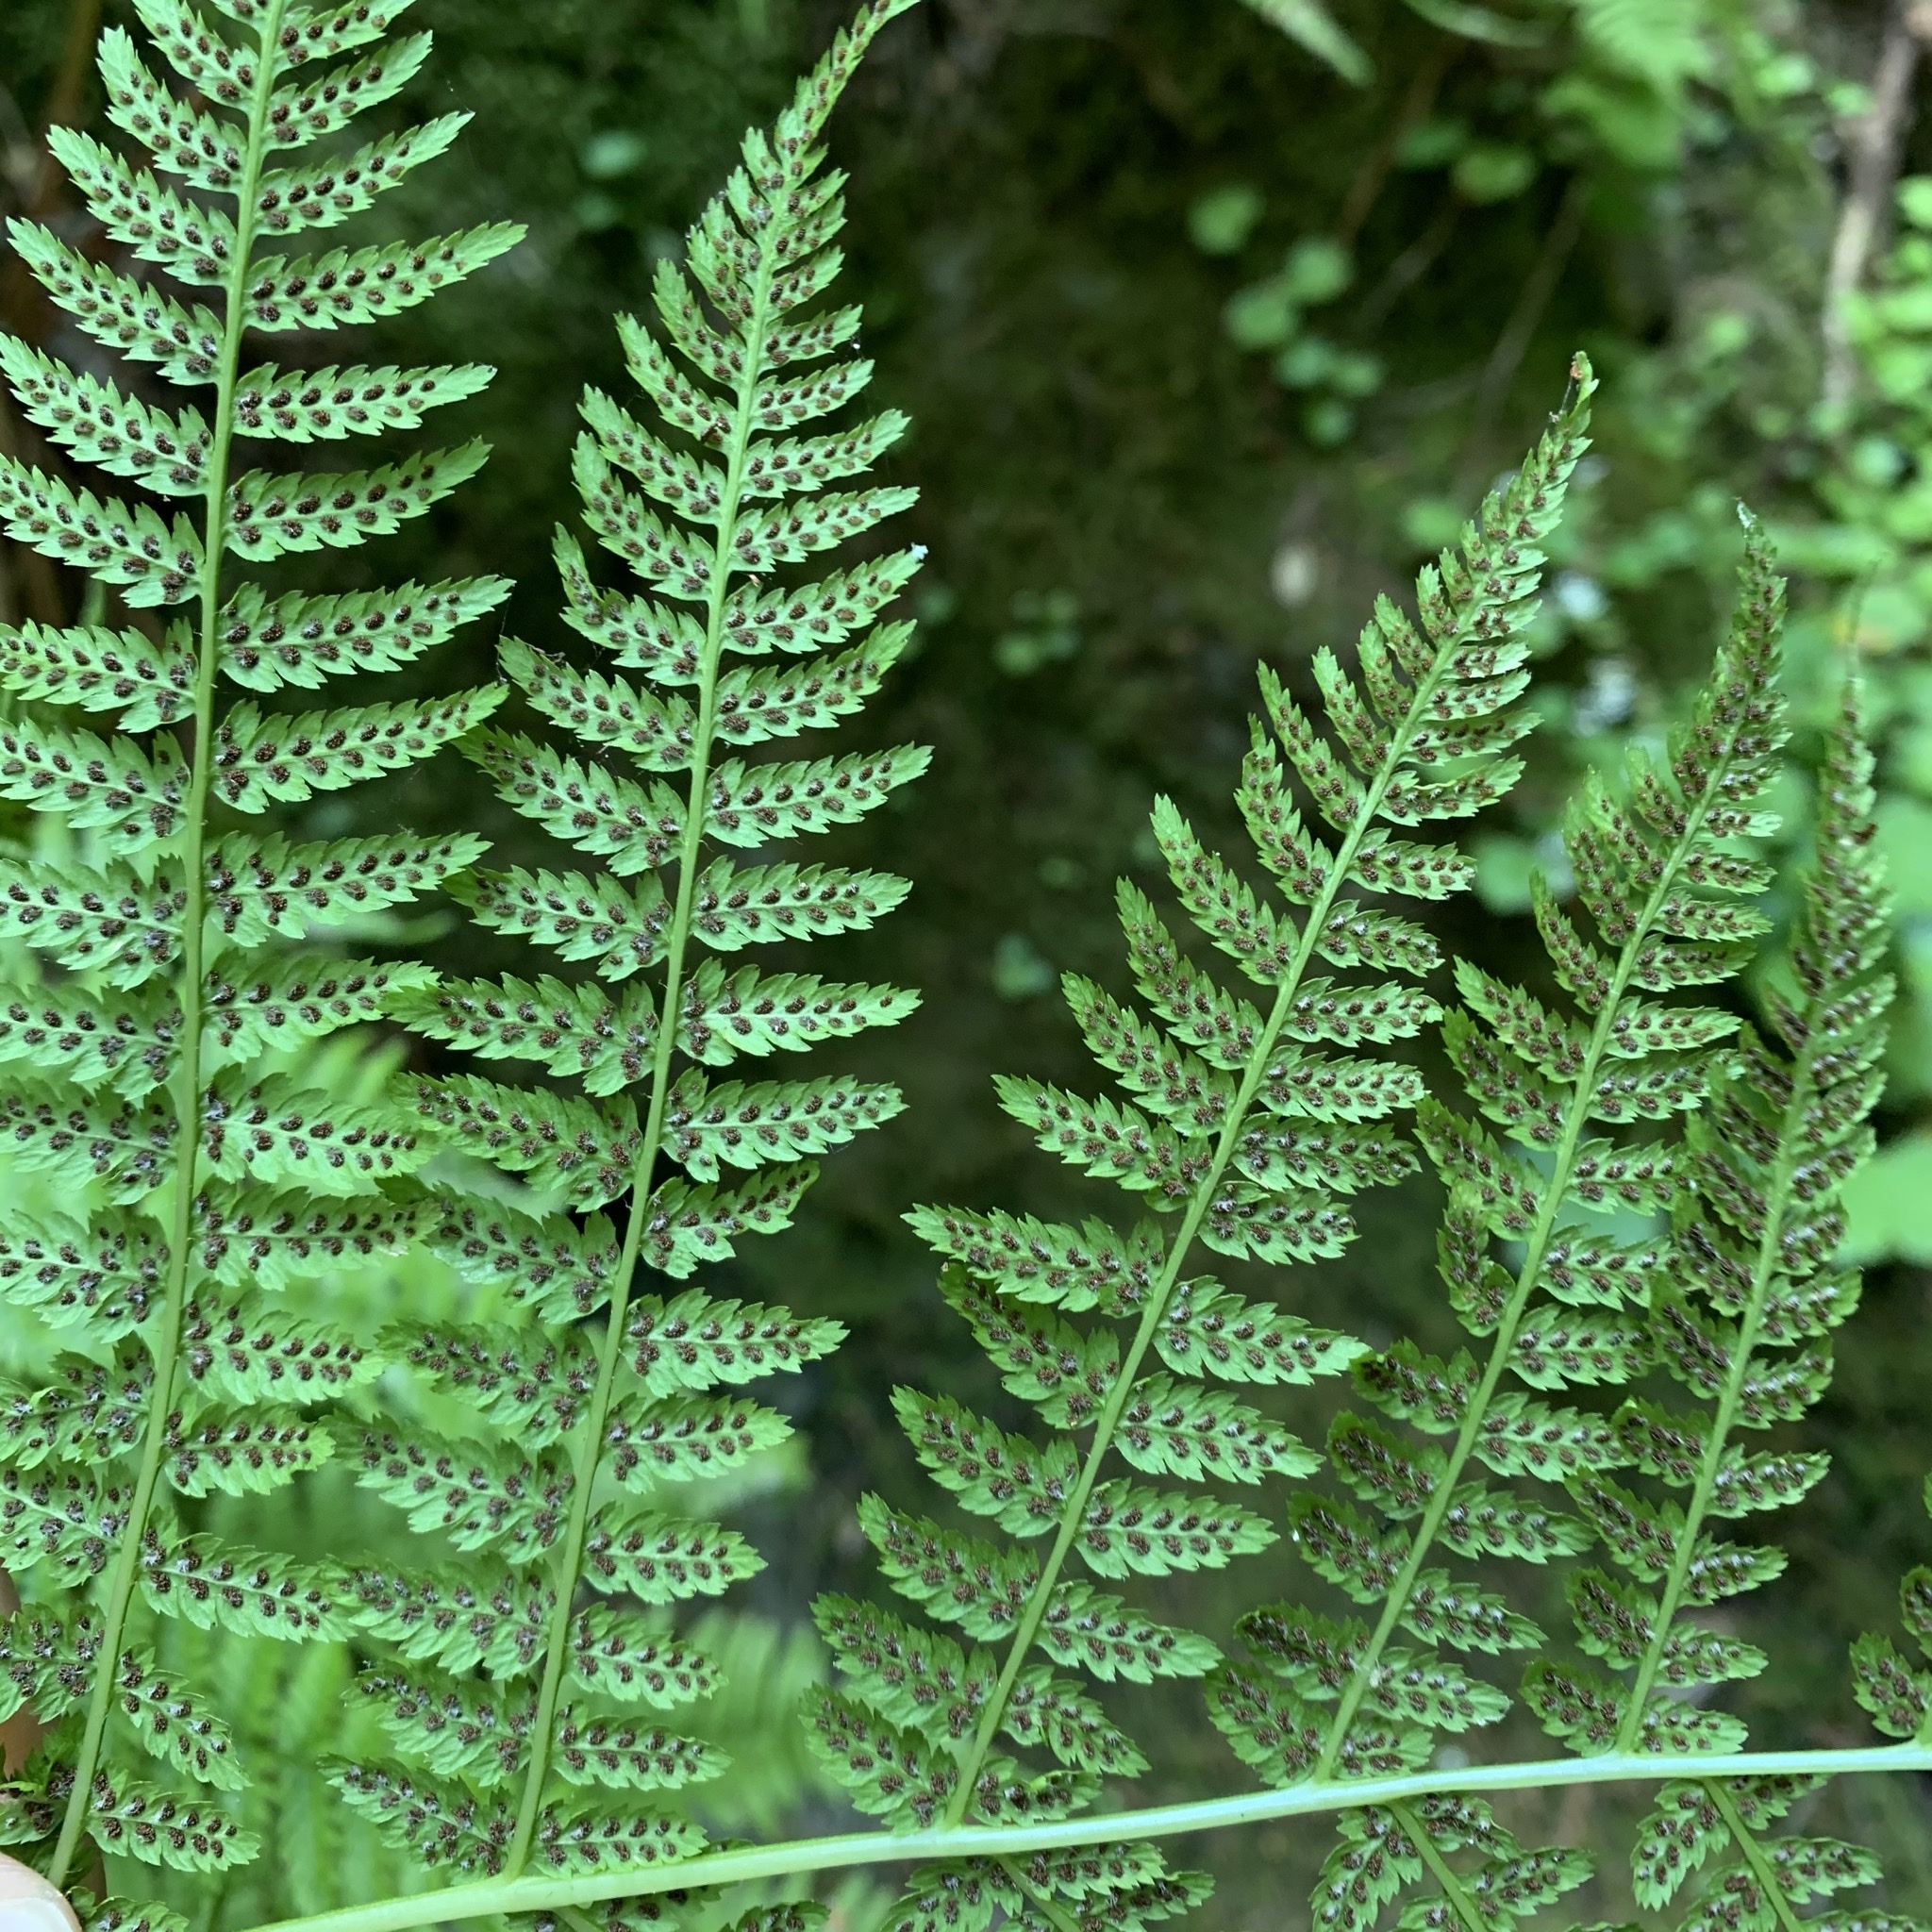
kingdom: Plantae
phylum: Tracheophyta
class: Polypodiopsida
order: Polypodiales
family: Athyriaceae
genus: Athyrium
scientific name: Athyrium cyclosorum
